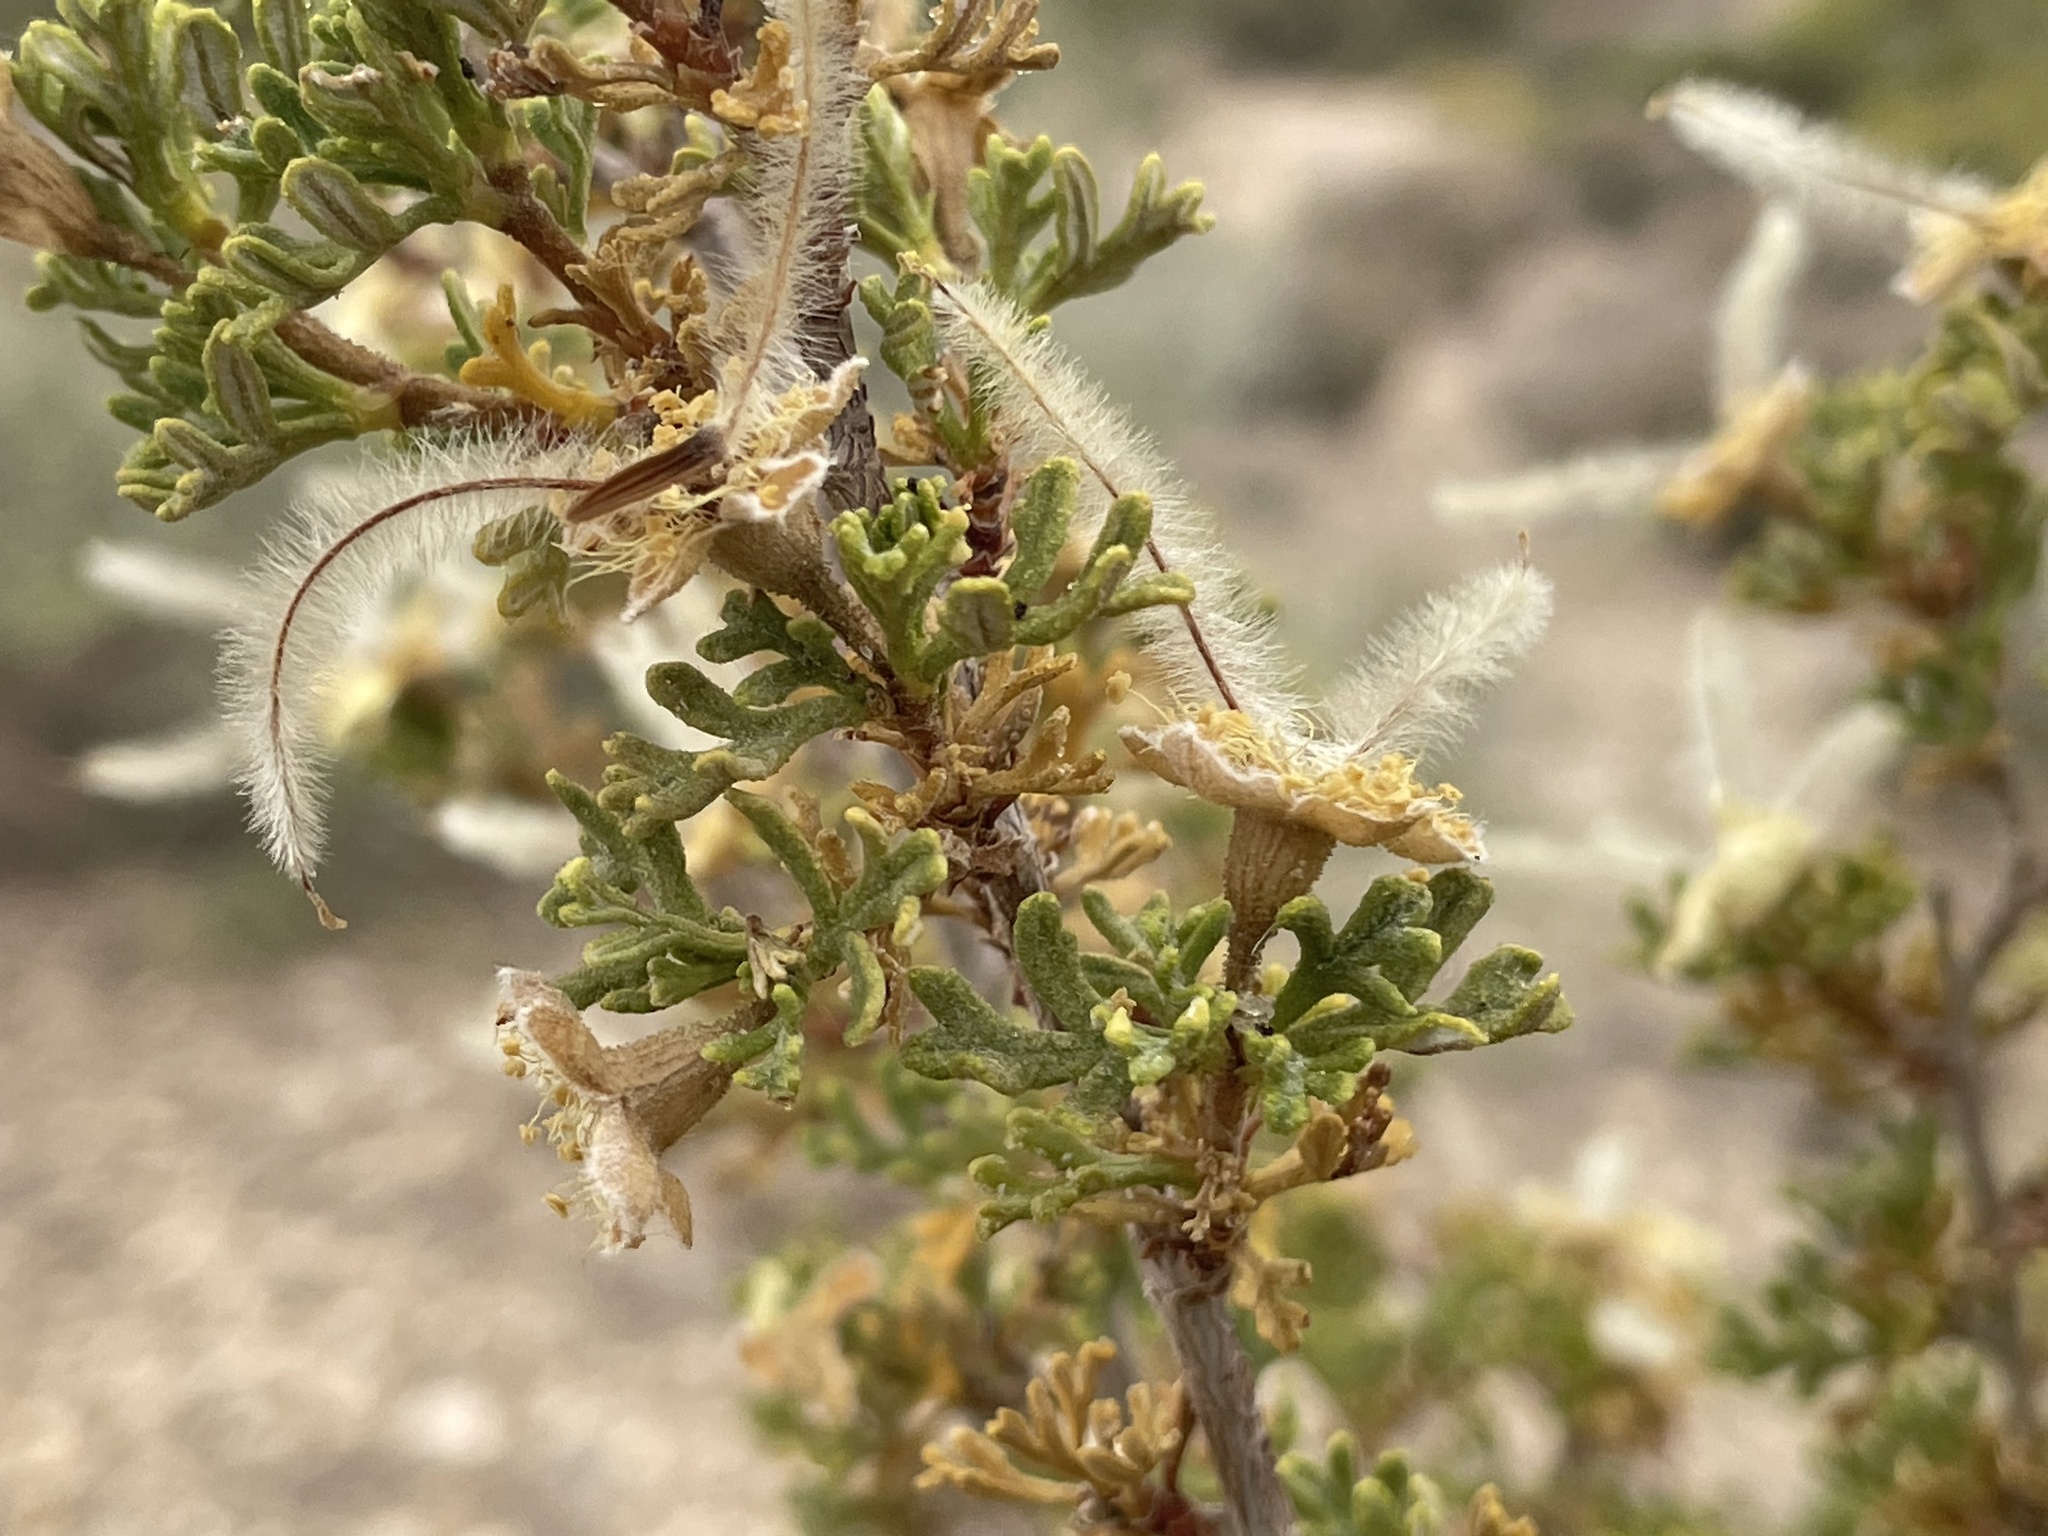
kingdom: Plantae
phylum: Tracheophyta
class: Magnoliopsida
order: Rosales
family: Rosaceae
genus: Purshia
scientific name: Purshia stansburiana
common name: Stansbury's cliffrose
